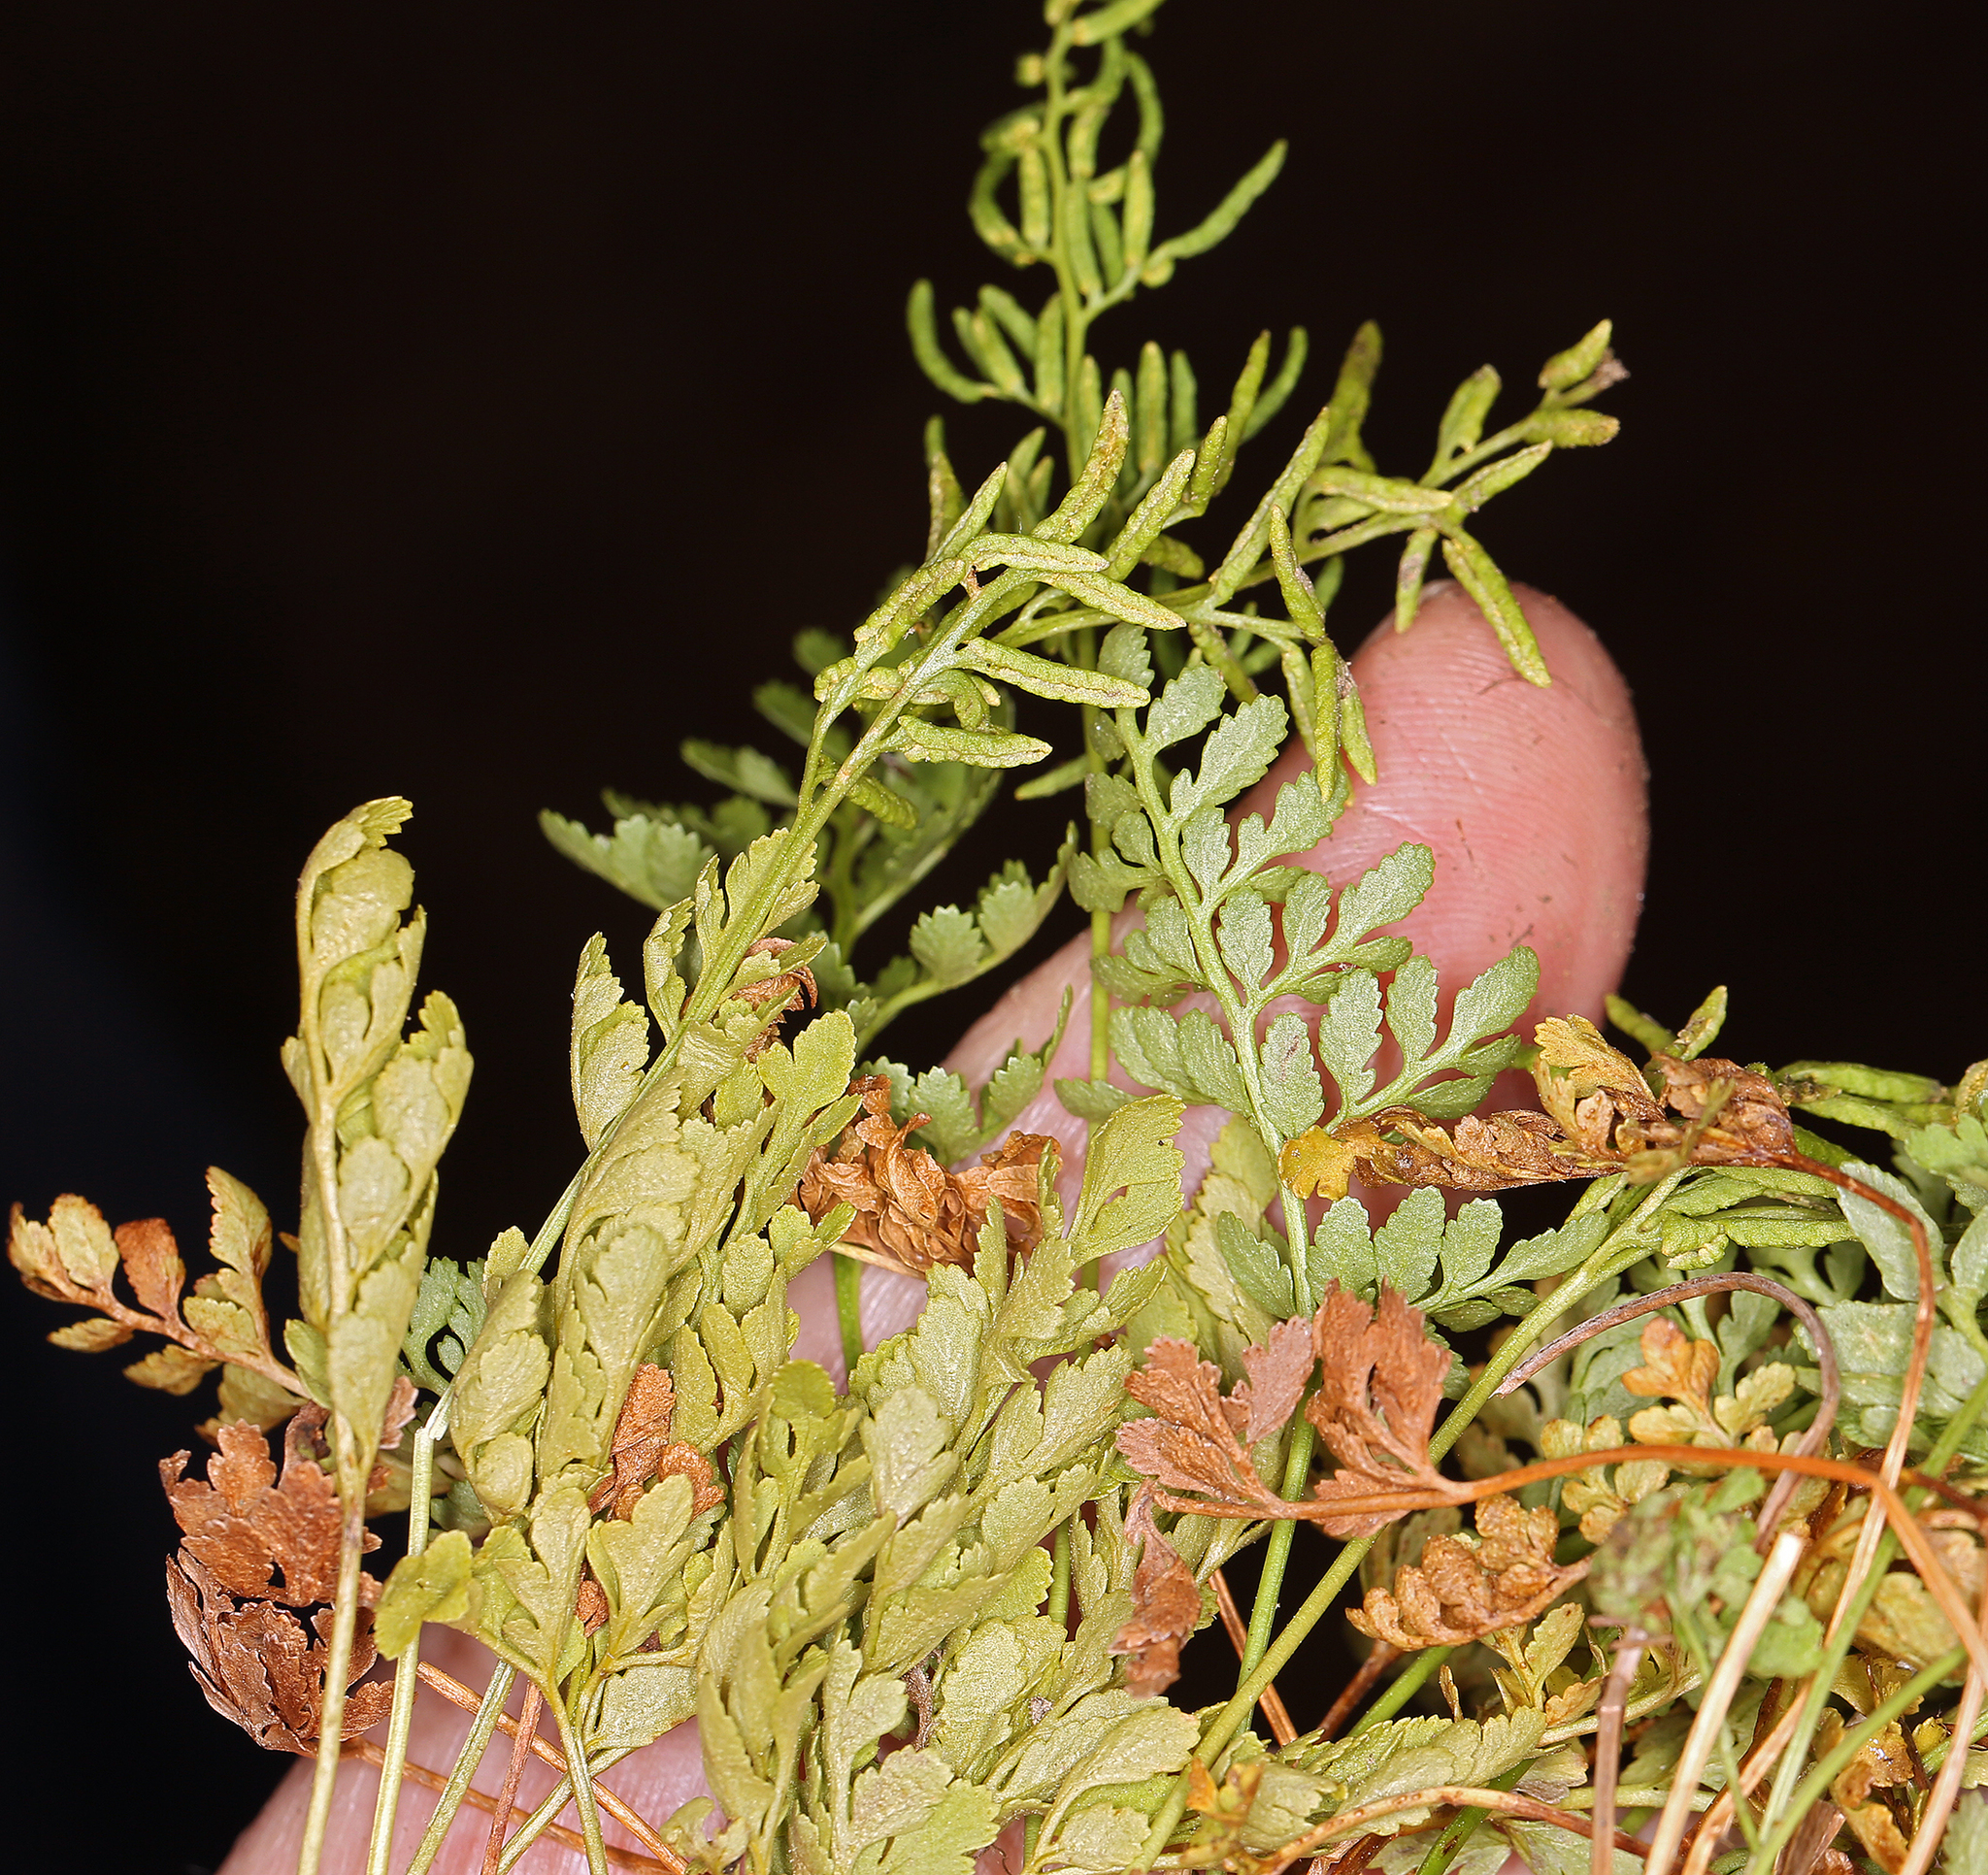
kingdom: Plantae
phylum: Tracheophyta
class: Polypodiopsida
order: Polypodiales
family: Pteridaceae
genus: Cryptogramma
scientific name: Cryptogramma acrostichoides
